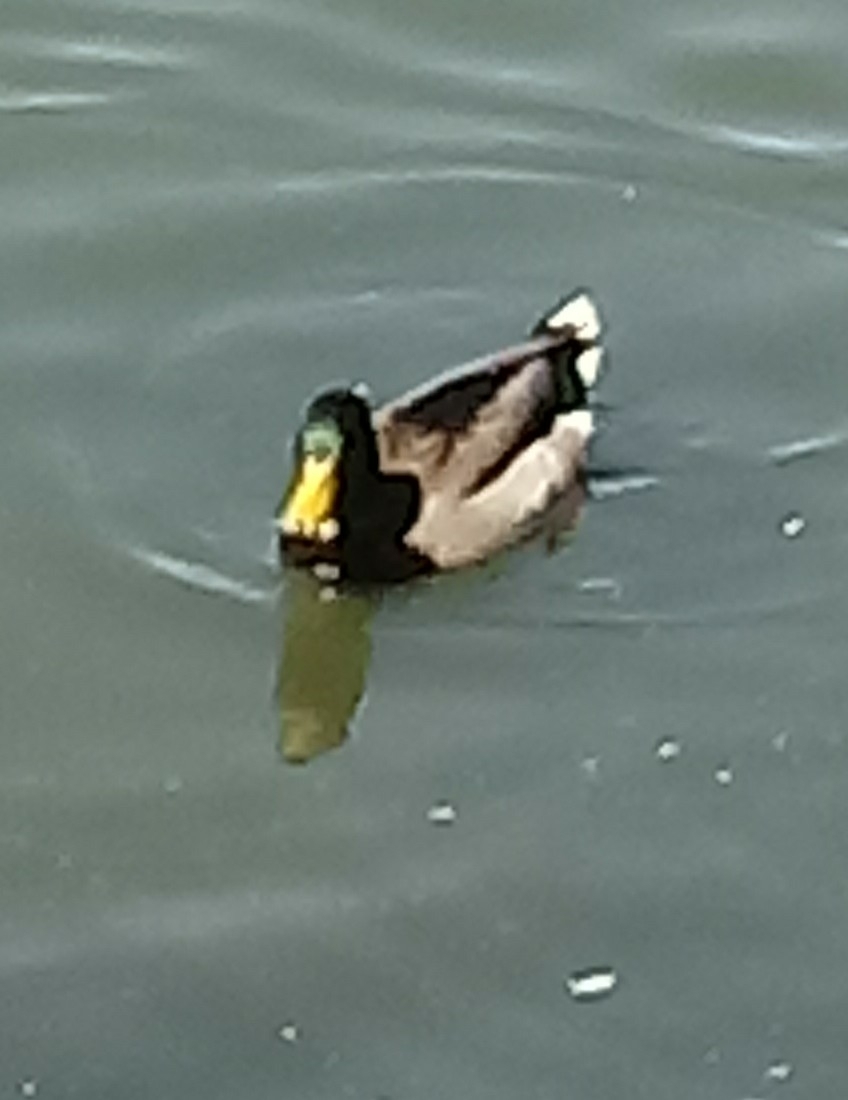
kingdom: Animalia
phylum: Chordata
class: Aves
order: Anseriformes
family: Anatidae
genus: Anas
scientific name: Anas platyrhynchos
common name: Mallard
